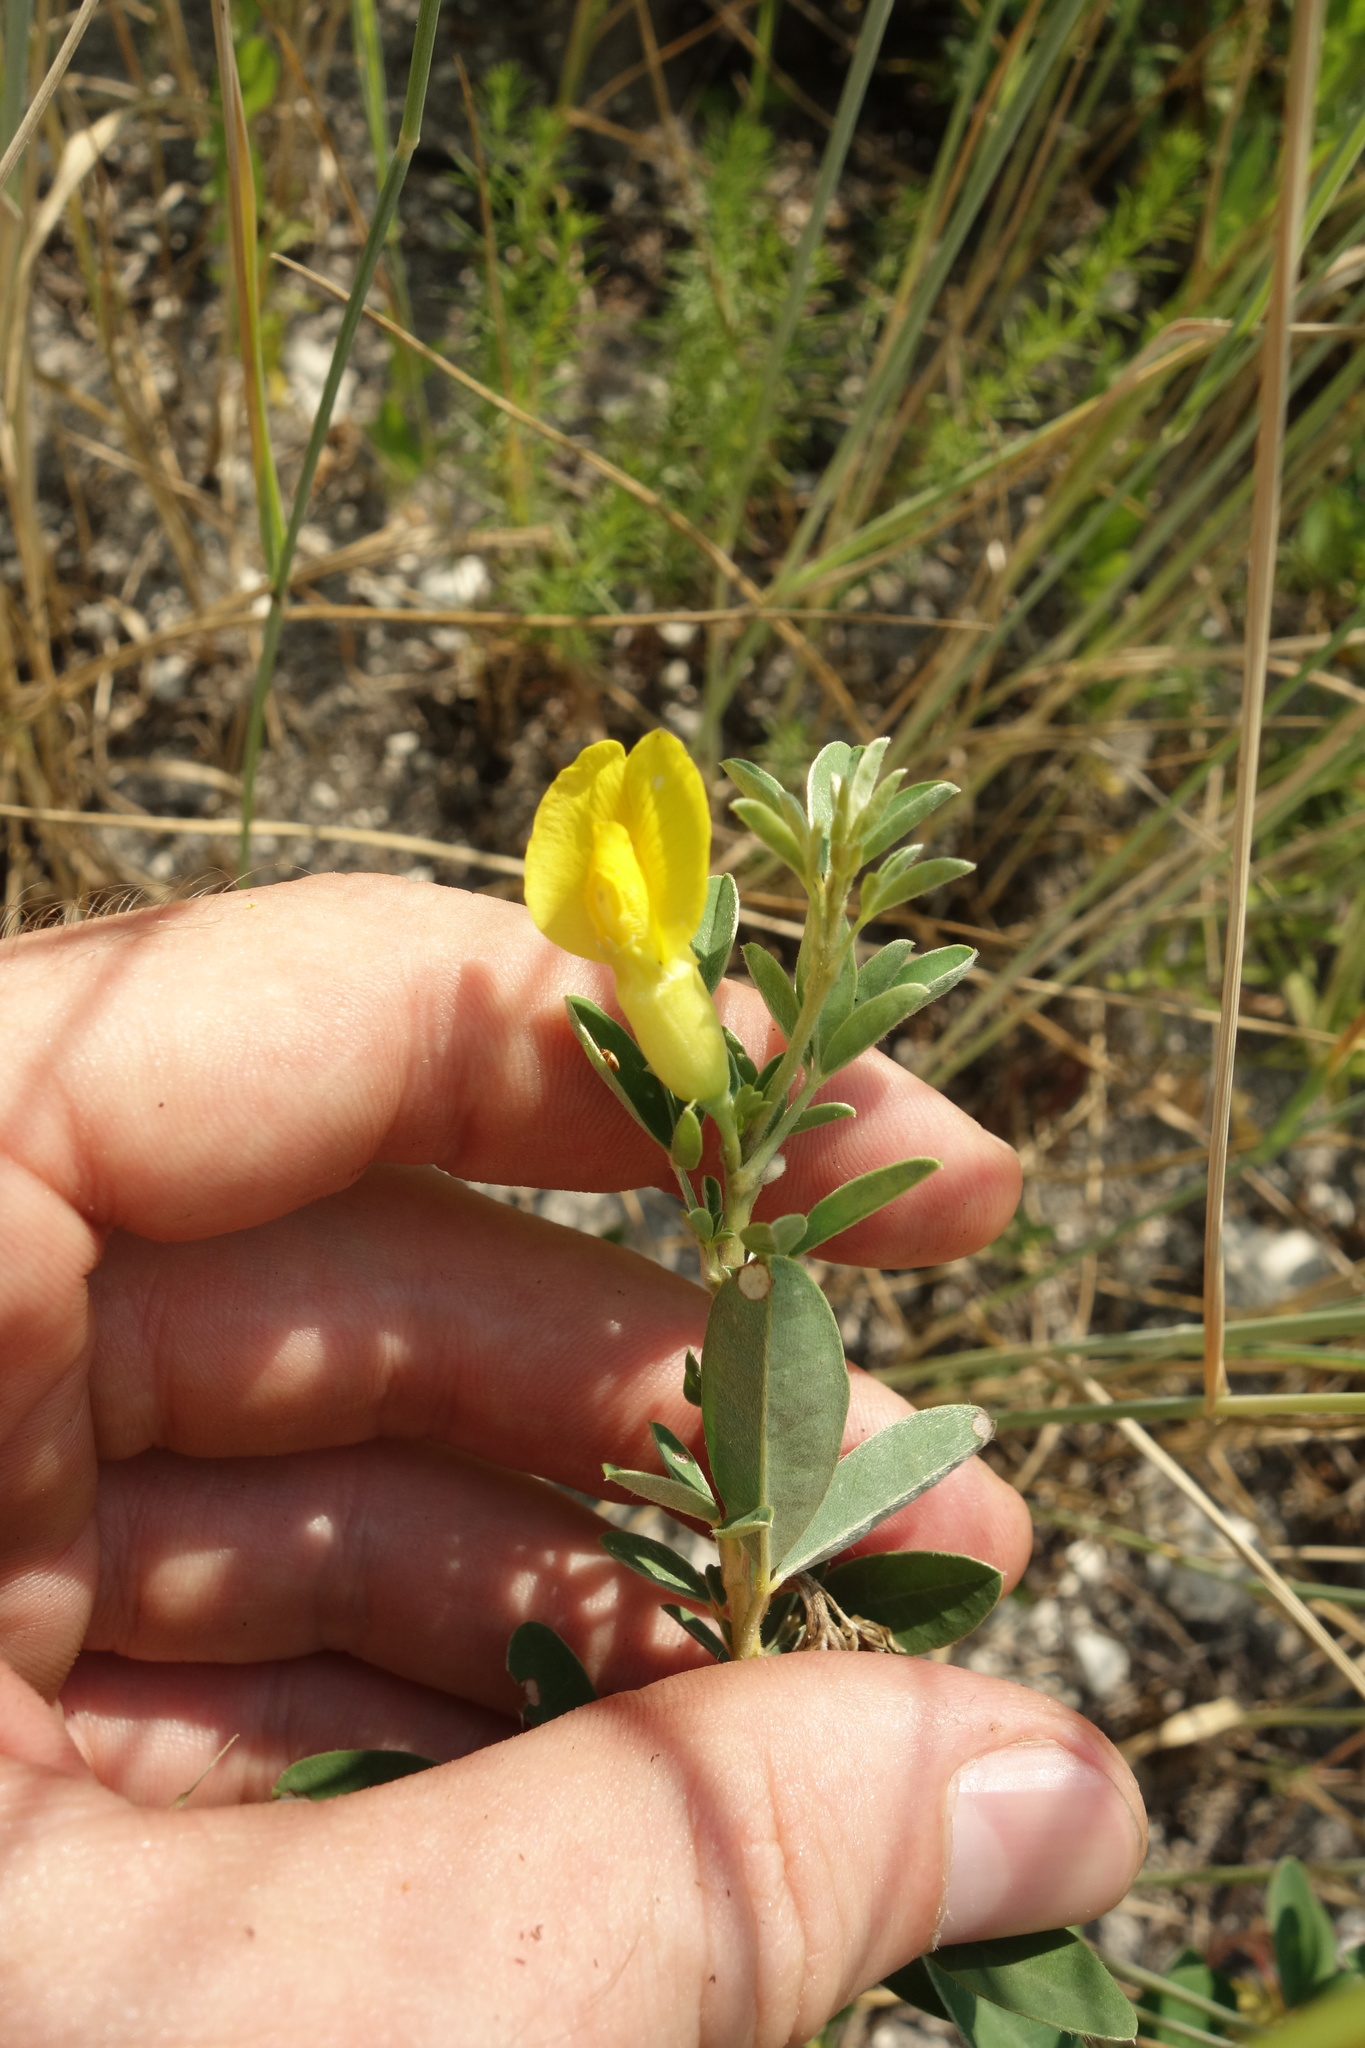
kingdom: Plantae
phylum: Tracheophyta
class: Magnoliopsida
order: Fabales
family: Fabaceae
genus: Chamaecytisus
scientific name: Chamaecytisus ruthenicus
